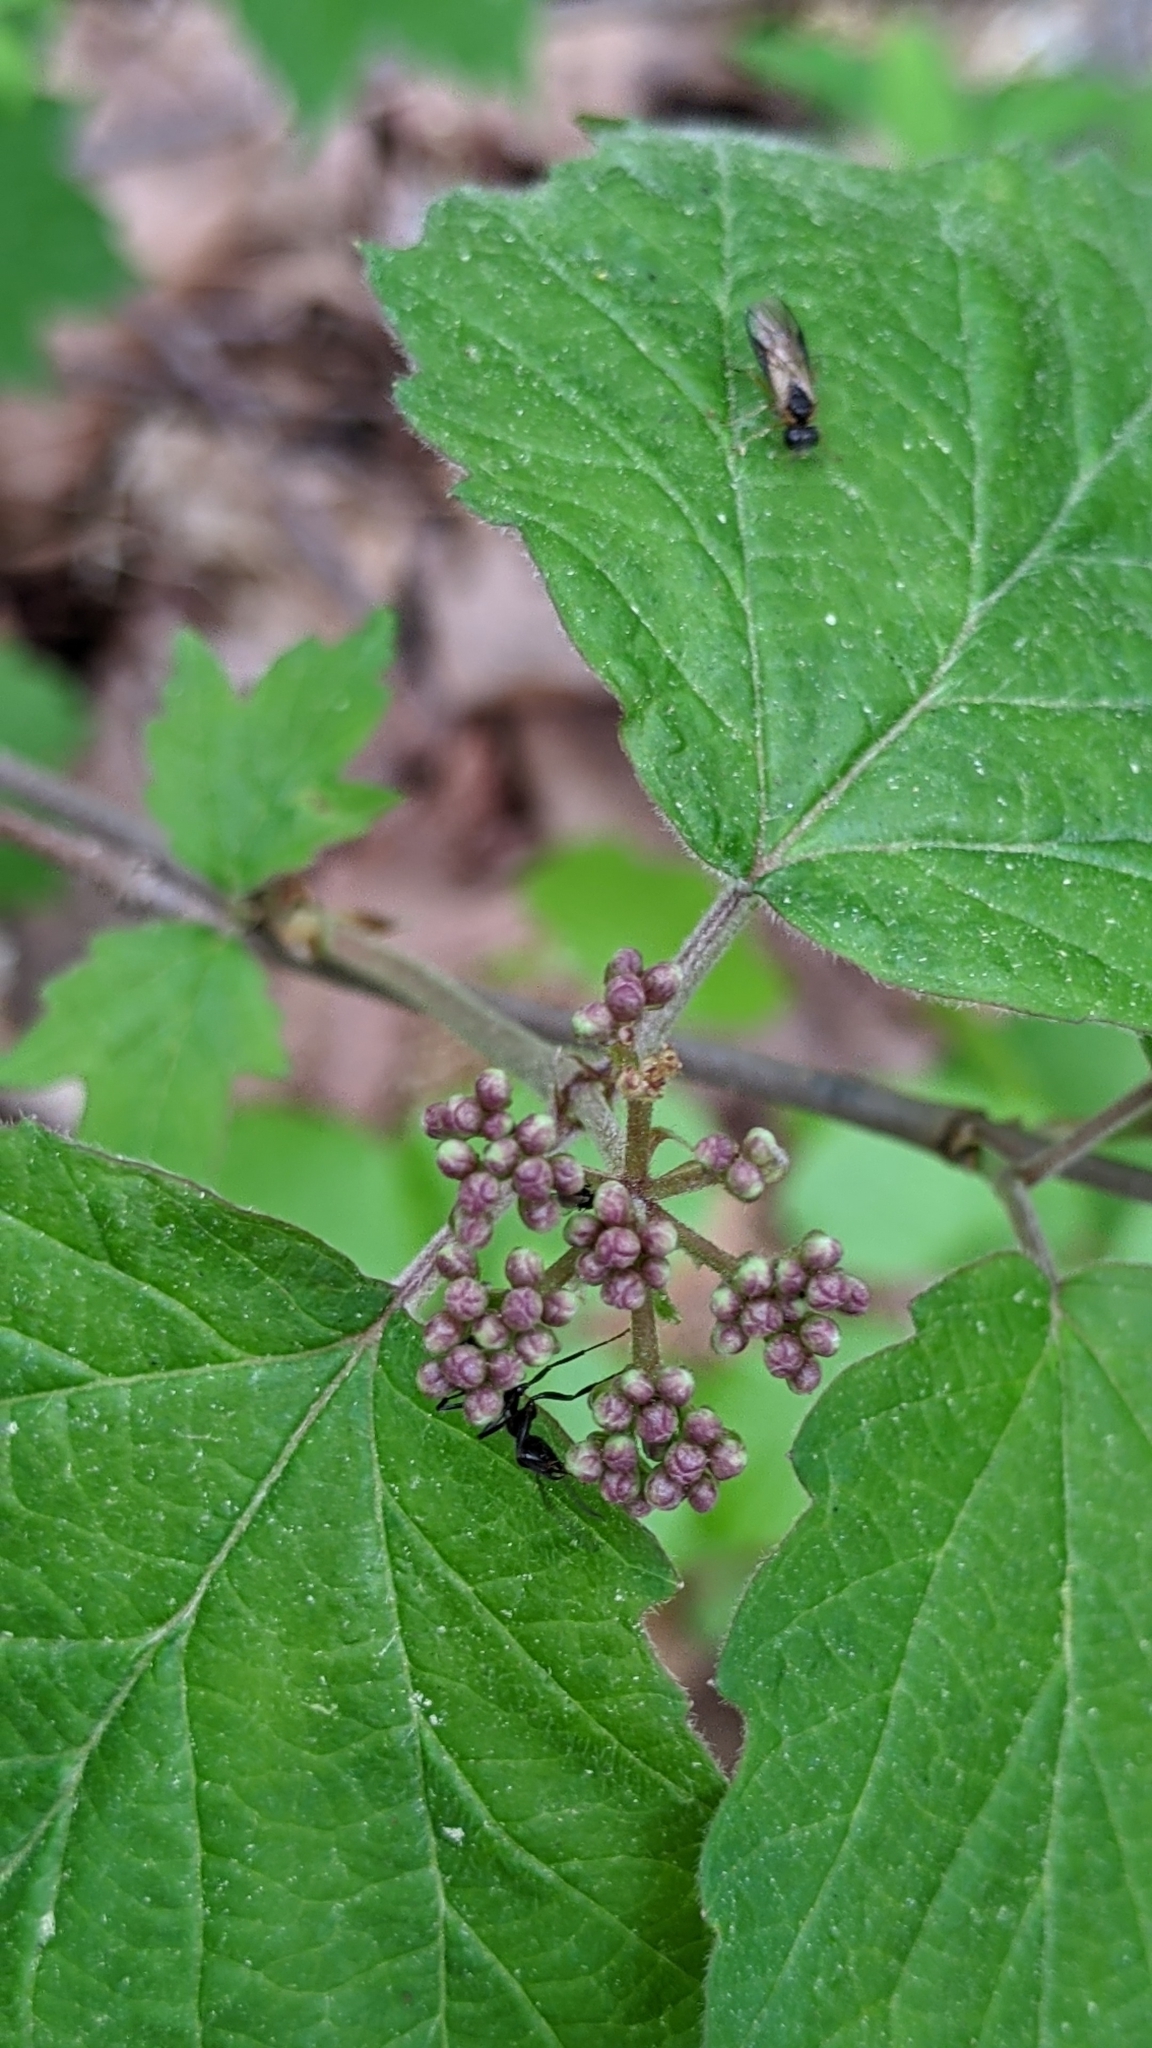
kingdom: Plantae
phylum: Tracheophyta
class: Magnoliopsida
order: Dipsacales
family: Viburnaceae
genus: Viburnum
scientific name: Viburnum acerifolium
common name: Dockmackie
